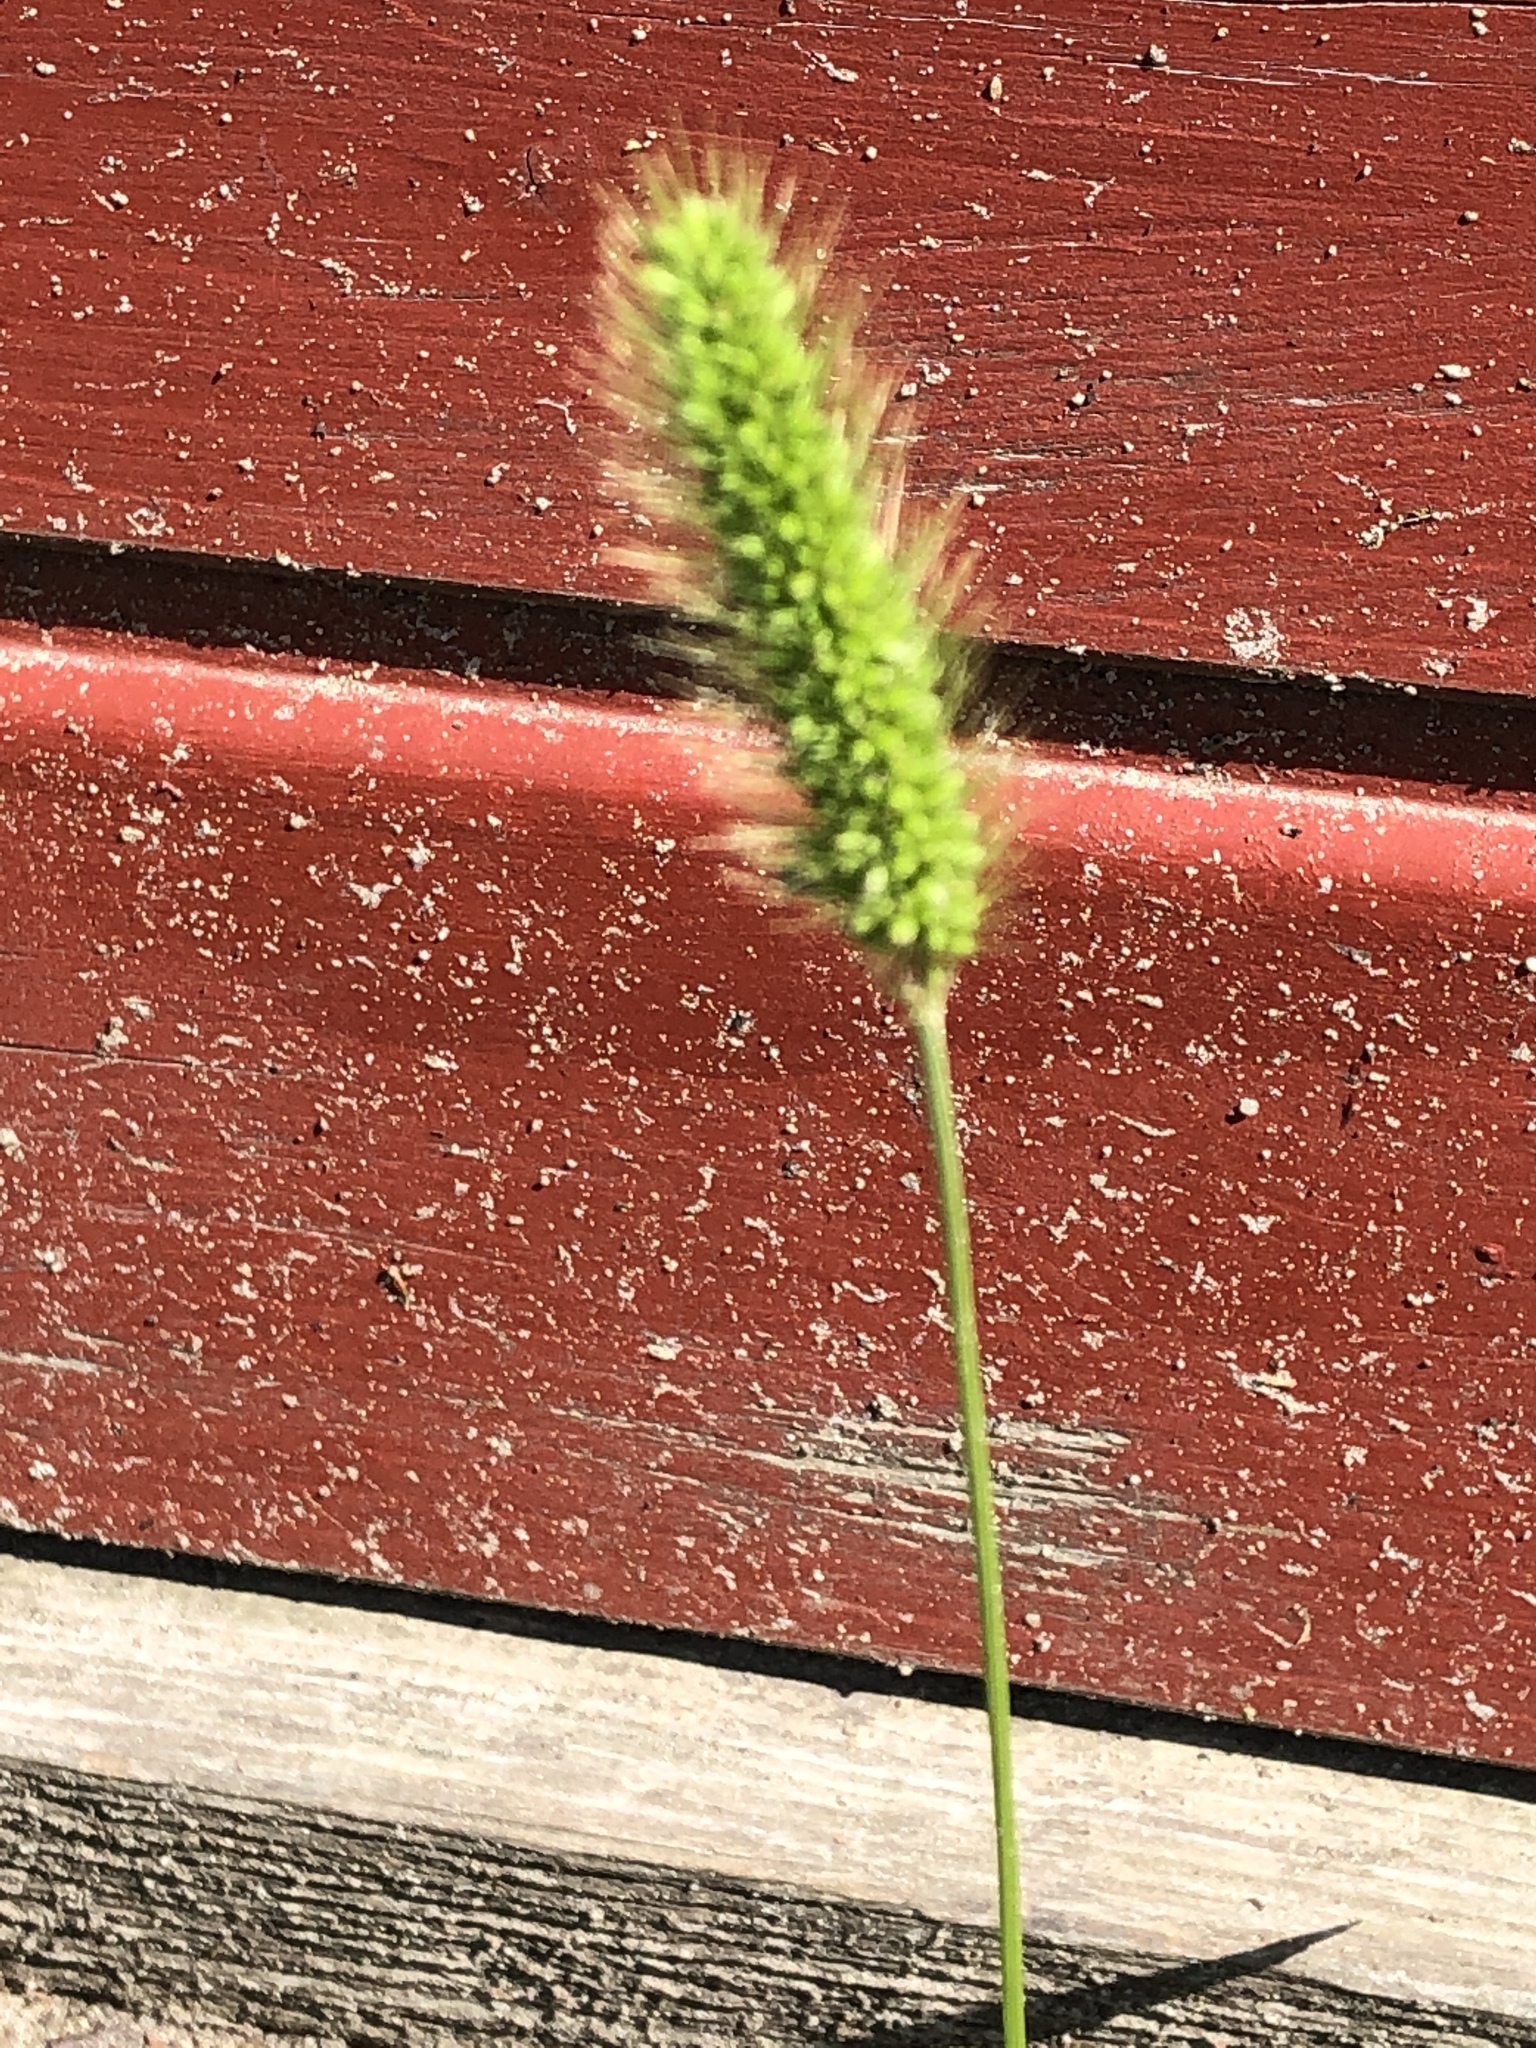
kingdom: Plantae
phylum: Tracheophyta
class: Liliopsida
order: Poales
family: Poaceae
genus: Setaria
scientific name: Setaria viridis
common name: Green bristlegrass
